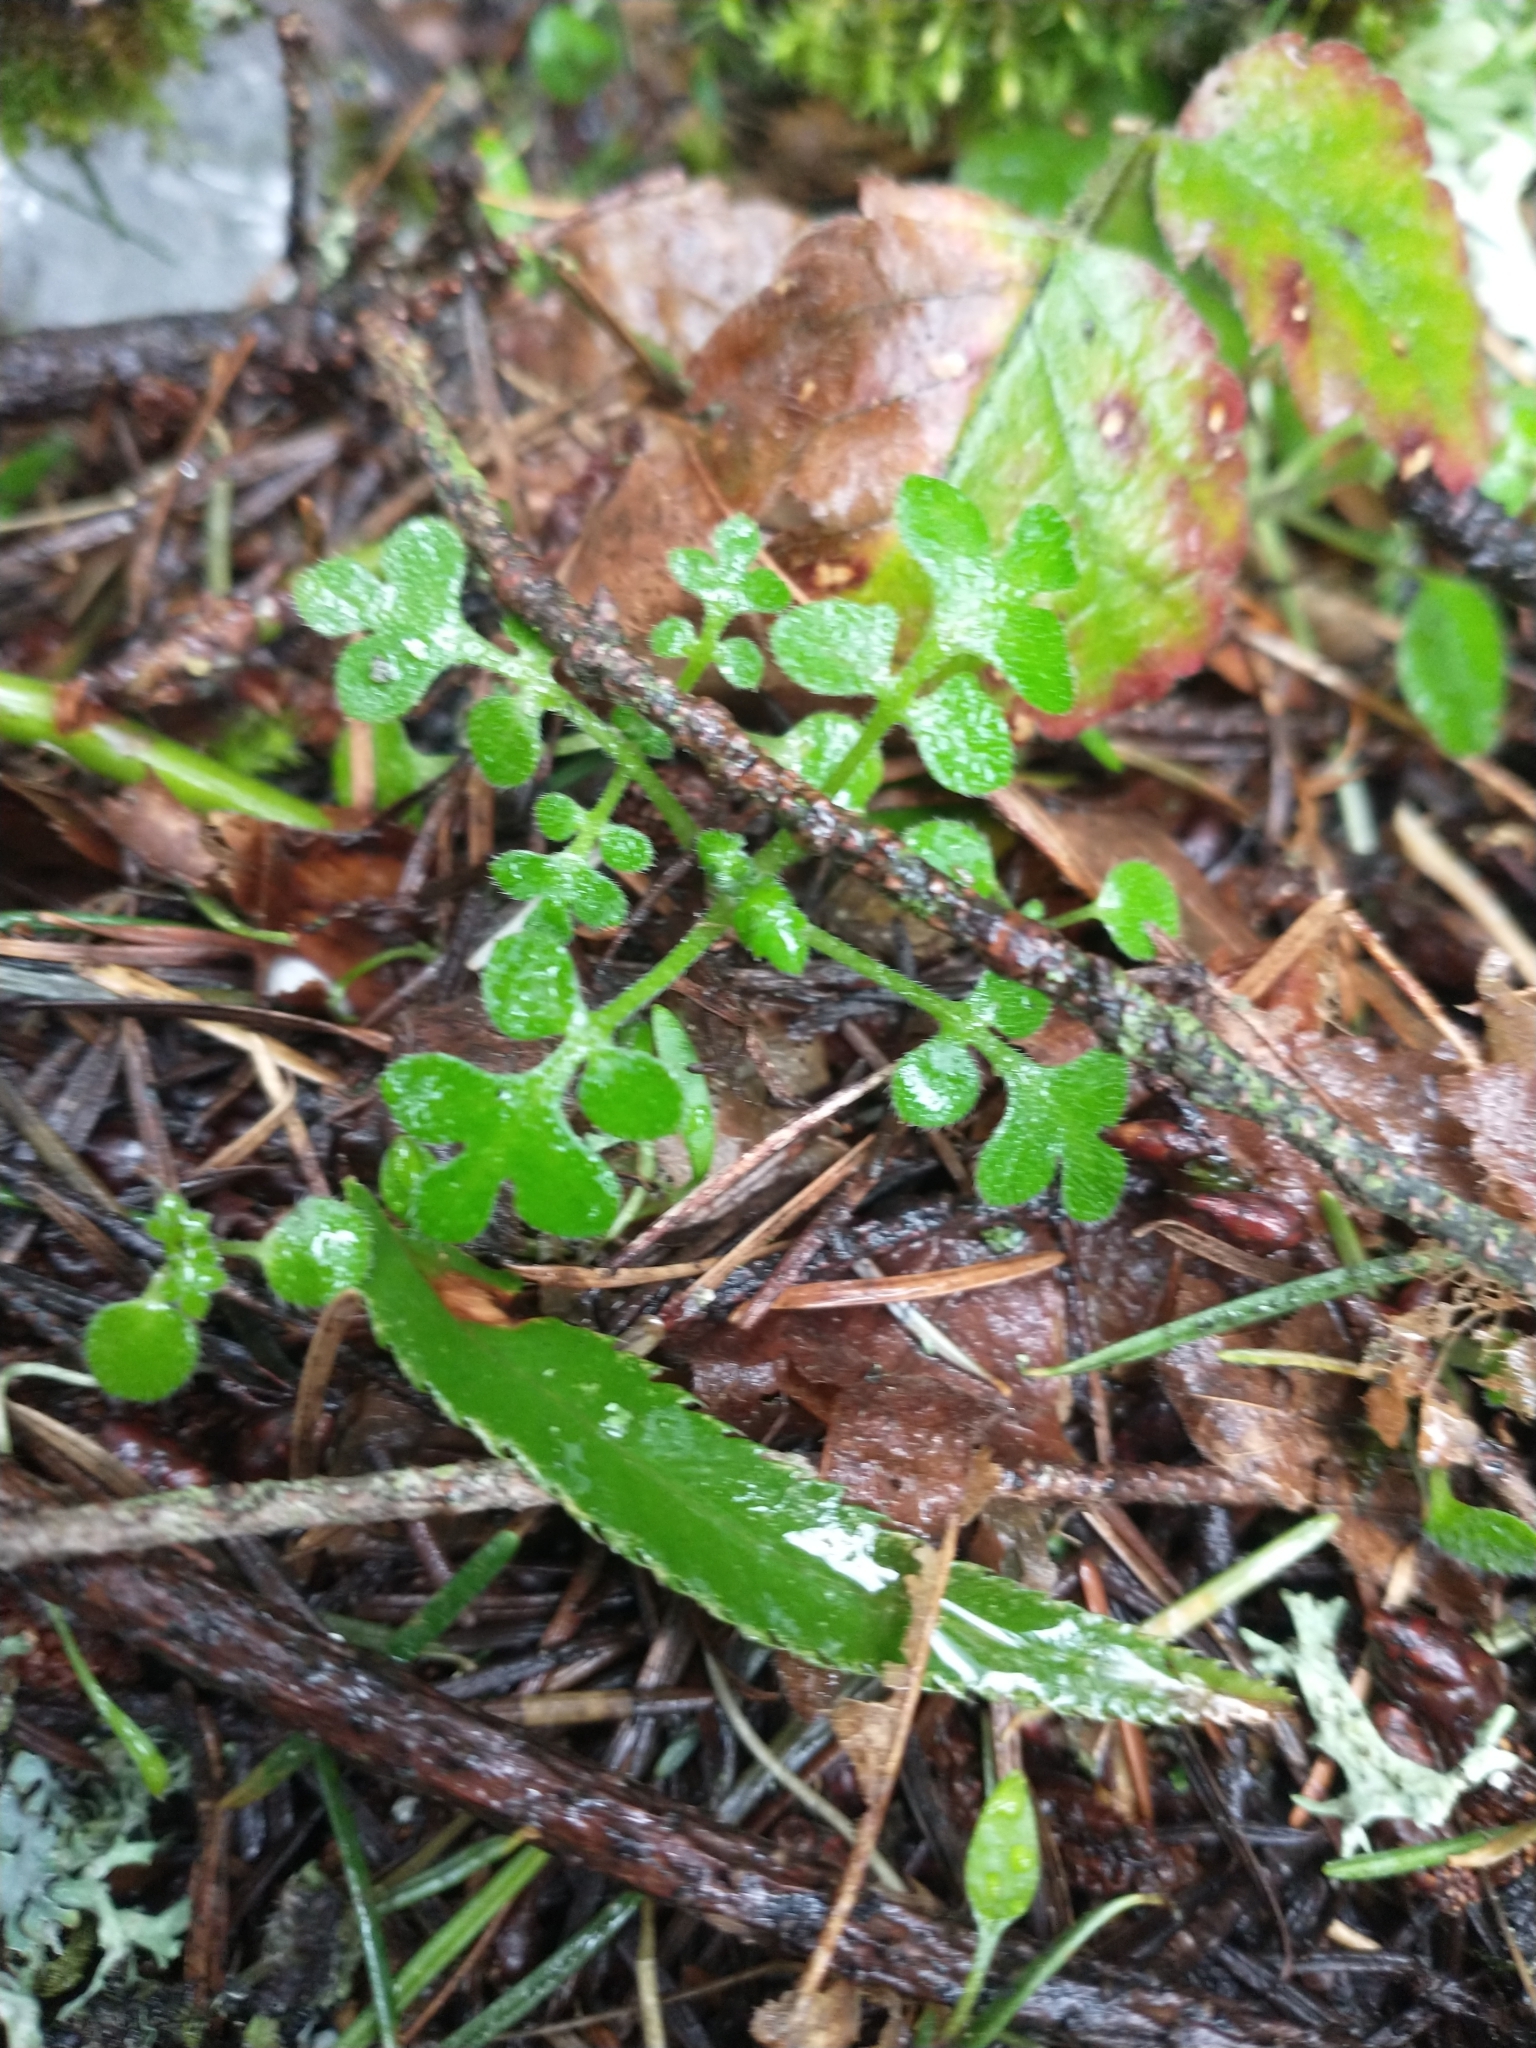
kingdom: Plantae
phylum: Tracheophyta
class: Magnoliopsida
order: Boraginales
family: Hydrophyllaceae
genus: Nemophila
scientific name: Nemophila parviflora
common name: Small-flowered baby-blue-eyes
